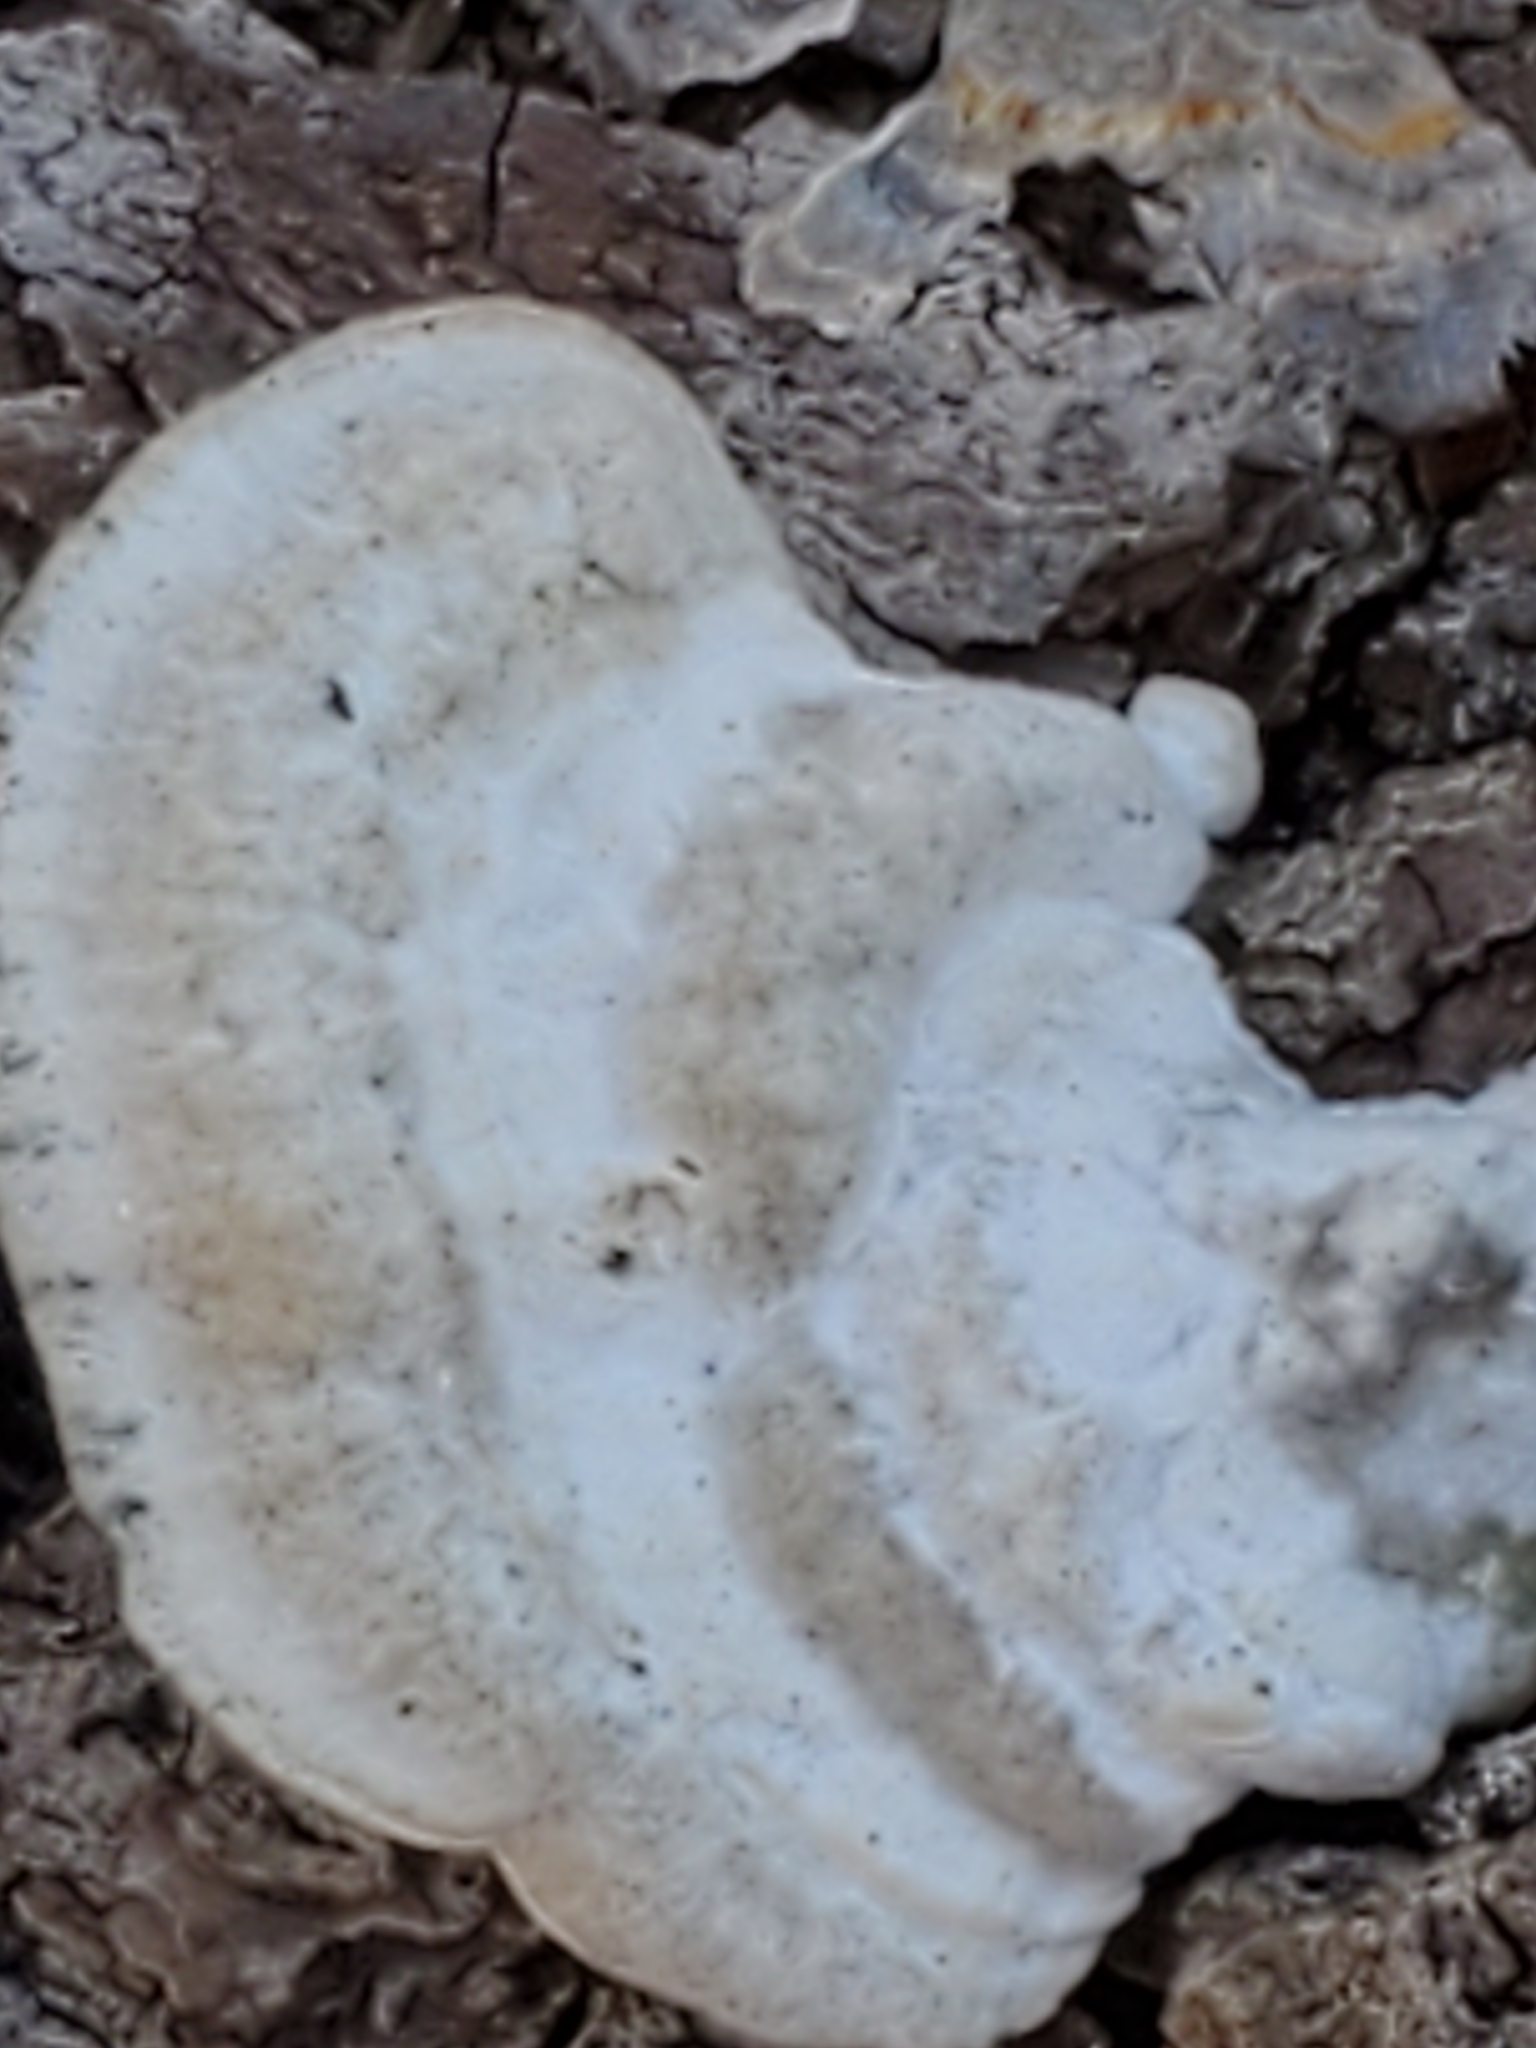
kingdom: Fungi
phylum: Basidiomycota
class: Agaricomycetes
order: Polyporales
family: Polyporaceae
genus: Trametes
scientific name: Trametes gibbosa
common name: Lumpy bracket
